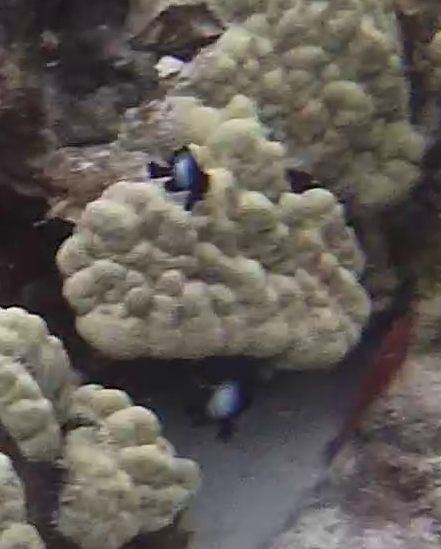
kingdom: Animalia
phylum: Chordata
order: Perciformes
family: Pomacentridae
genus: Dascyllus
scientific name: Dascyllus albisella
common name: Hawaiian dascyllus
